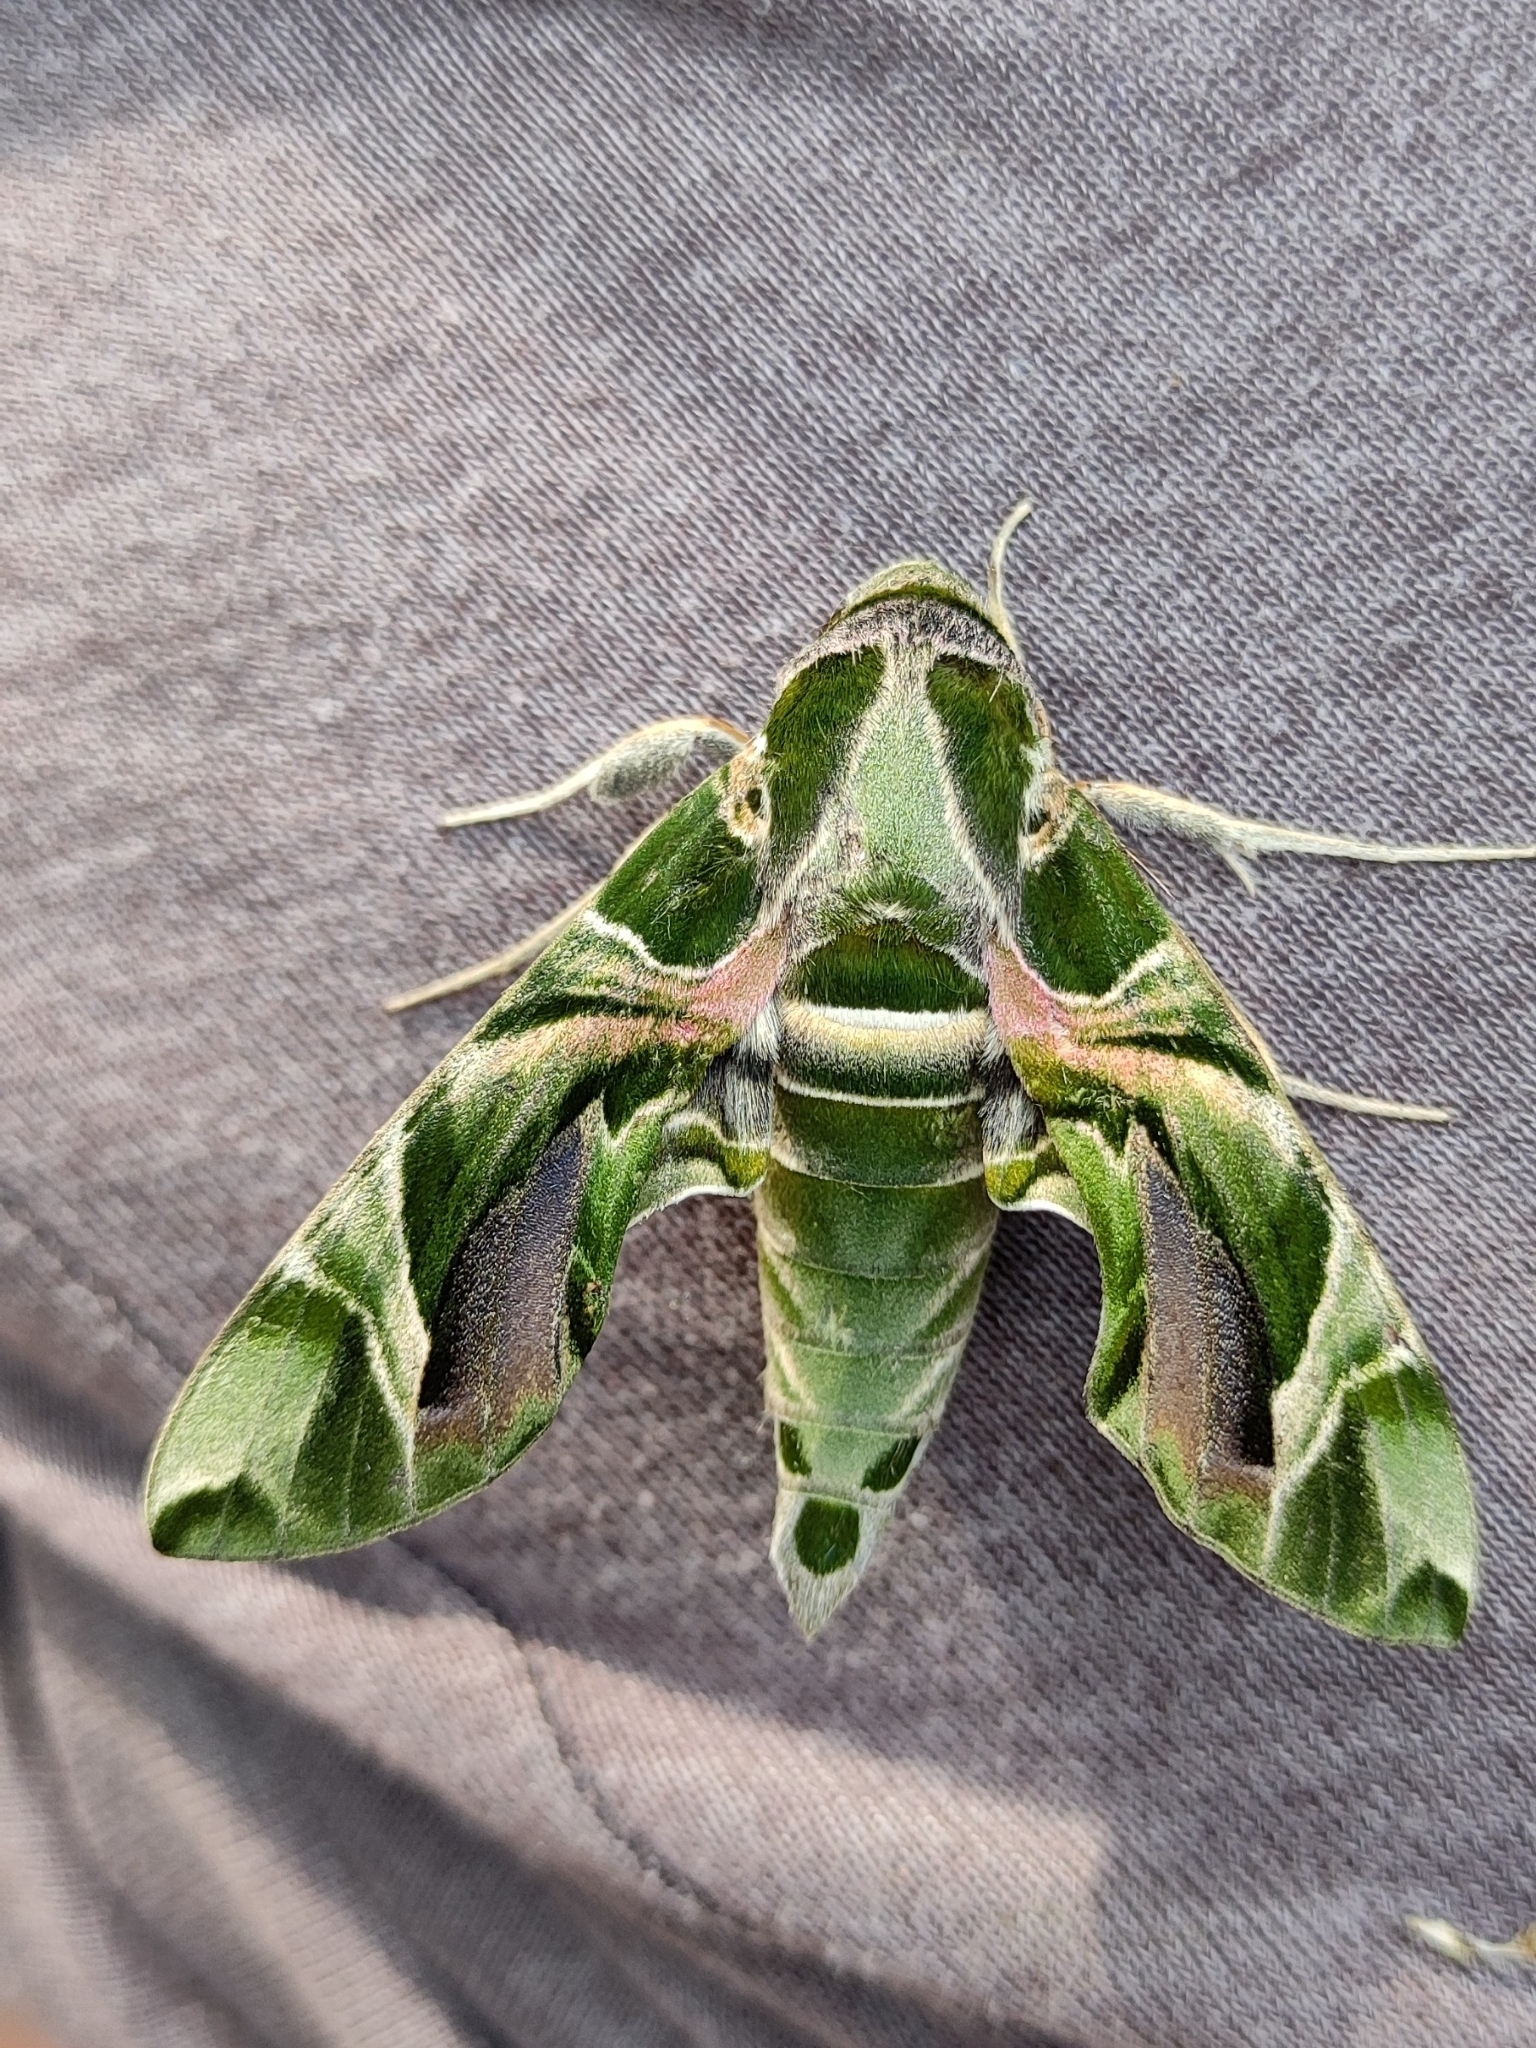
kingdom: Animalia
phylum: Arthropoda
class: Insecta
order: Lepidoptera
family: Sphingidae
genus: Daphnis
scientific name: Daphnis nerii
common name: Oleander hawk-moth
